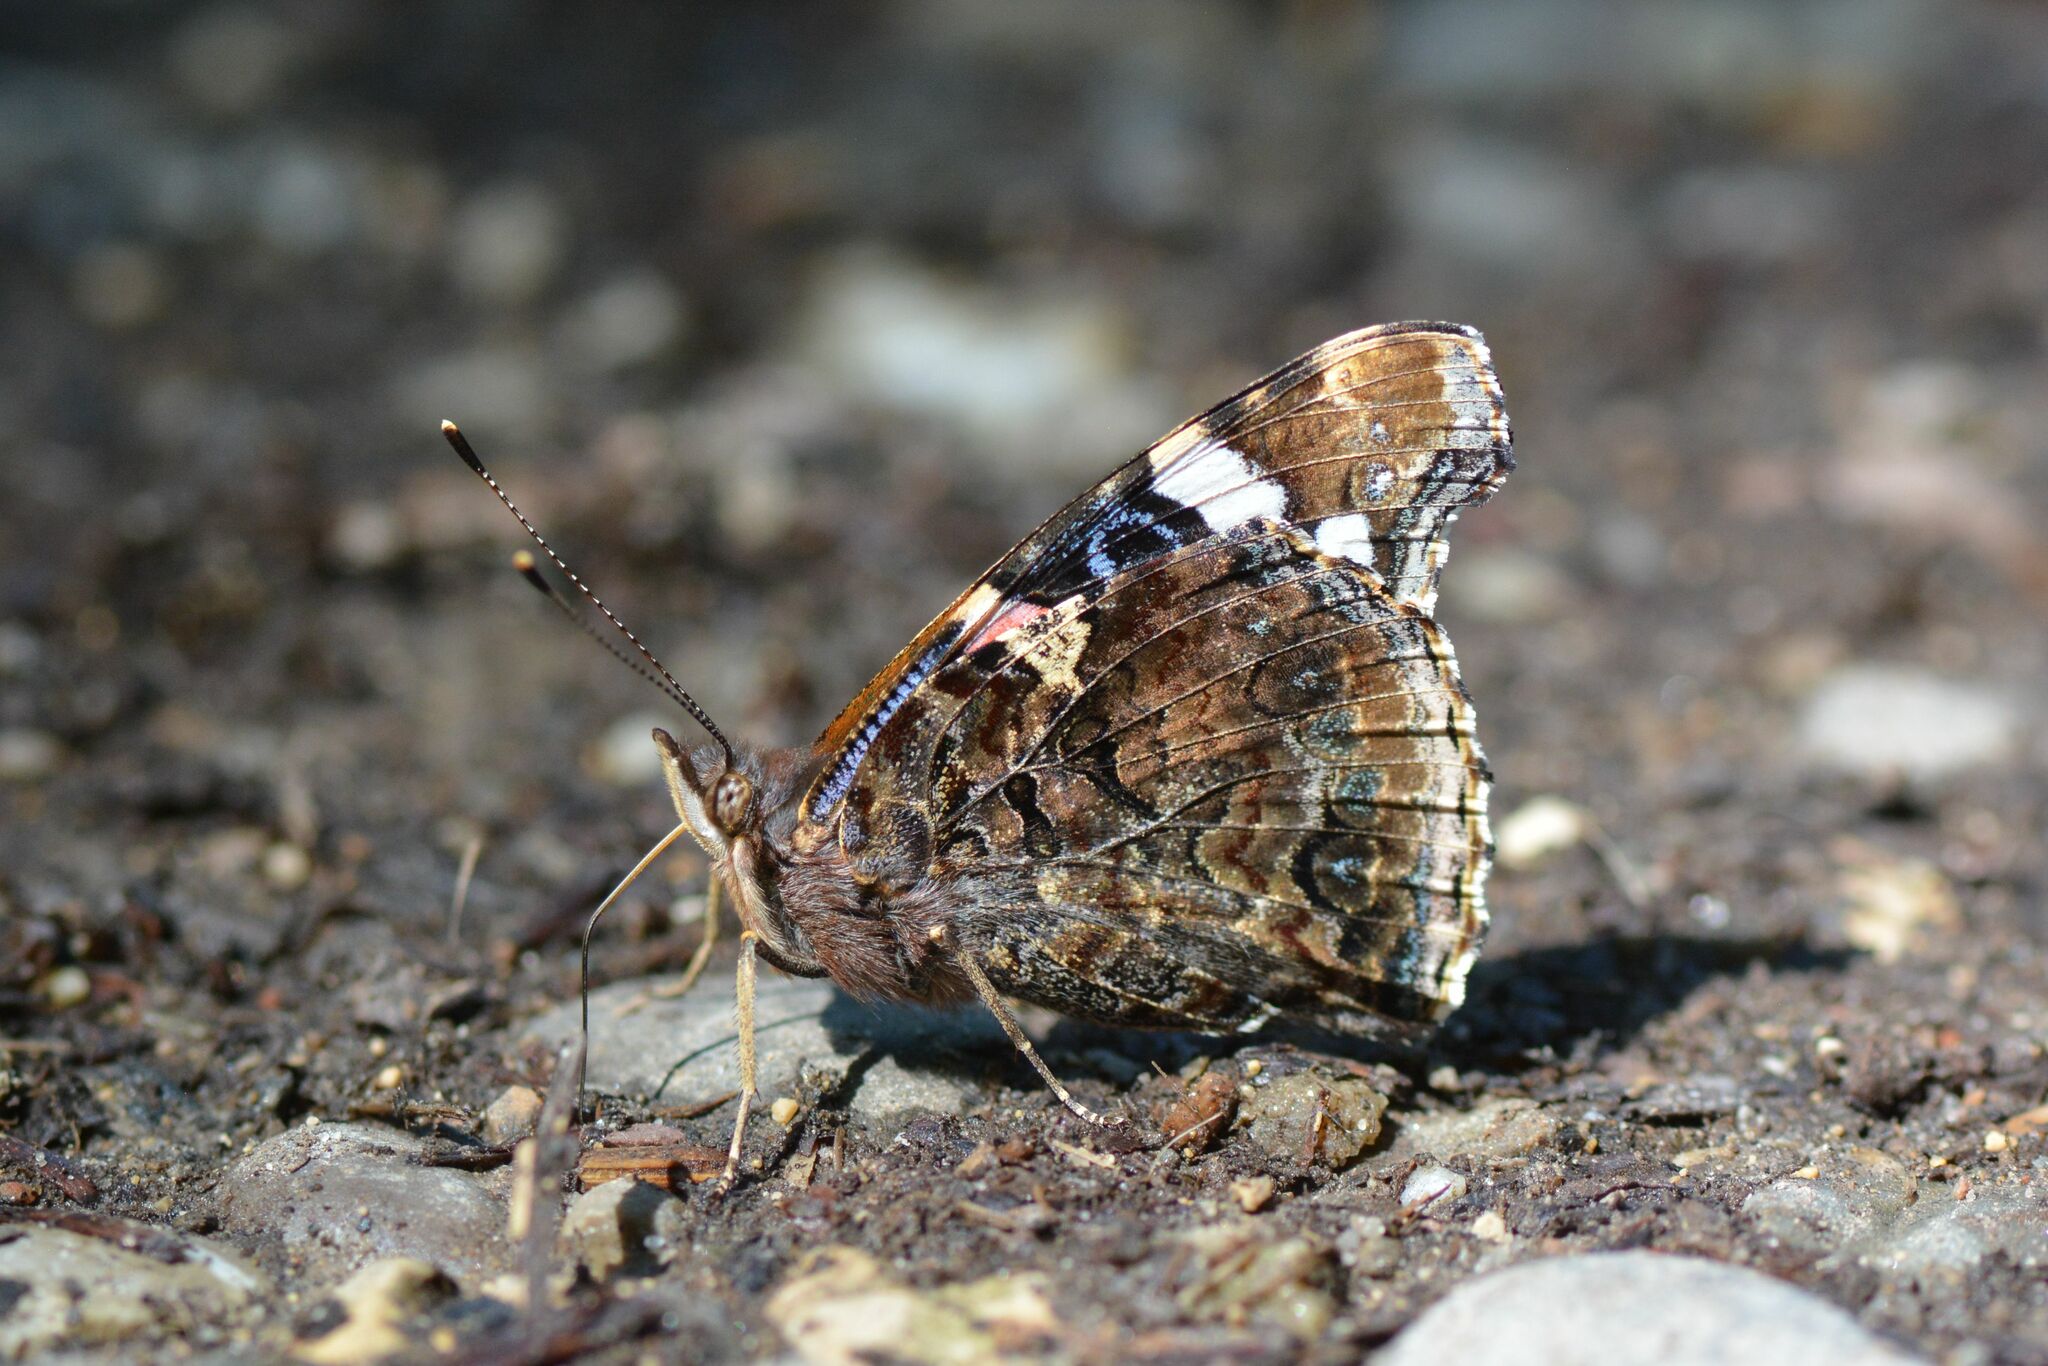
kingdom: Animalia
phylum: Arthropoda
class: Insecta
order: Lepidoptera
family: Nymphalidae
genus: Vanessa
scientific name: Vanessa atalanta
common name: Red admiral
